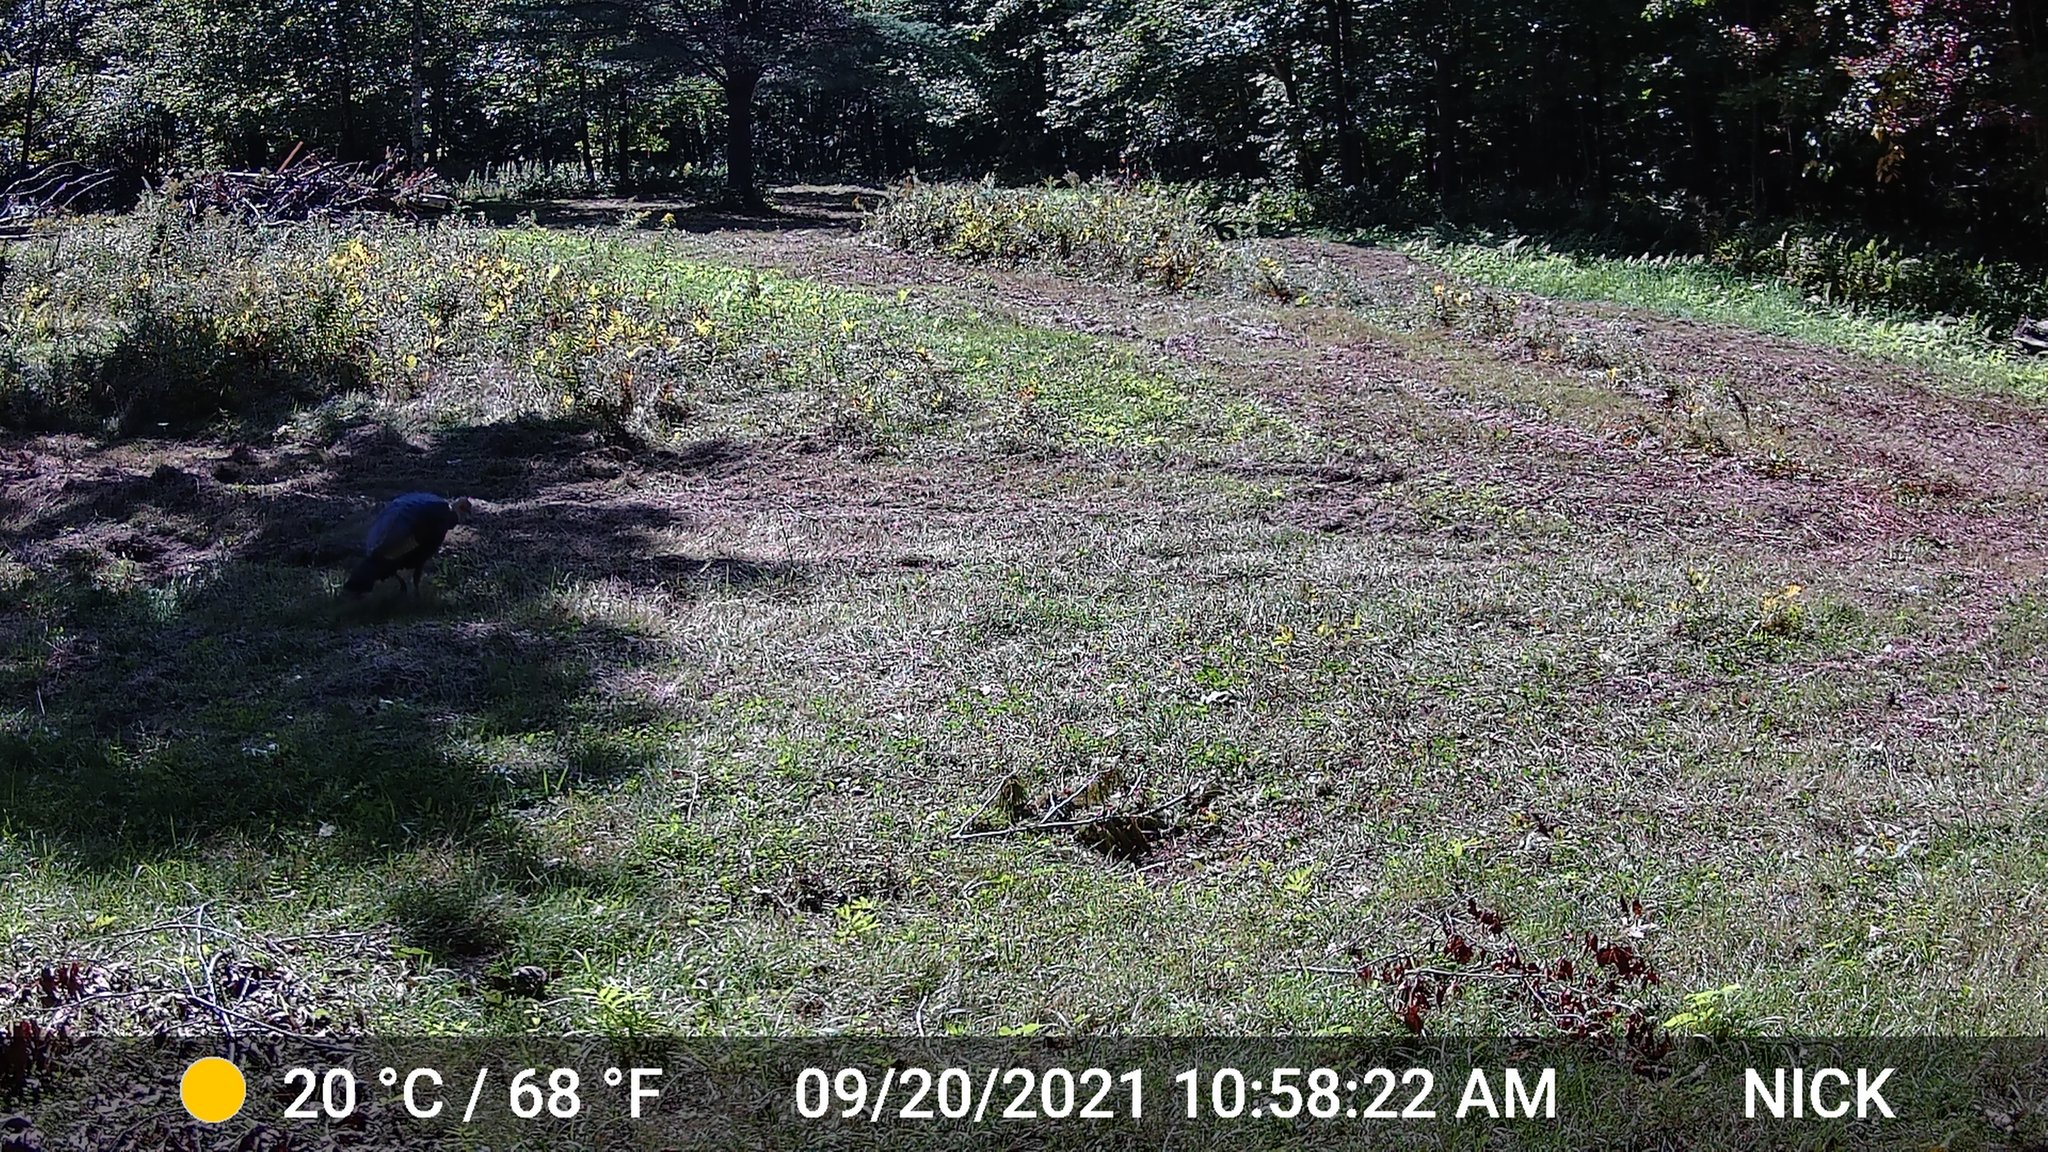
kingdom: Animalia
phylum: Chordata
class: Aves
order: Galliformes
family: Phasianidae
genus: Meleagris
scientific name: Meleagris gallopavo
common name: Wild turkey
